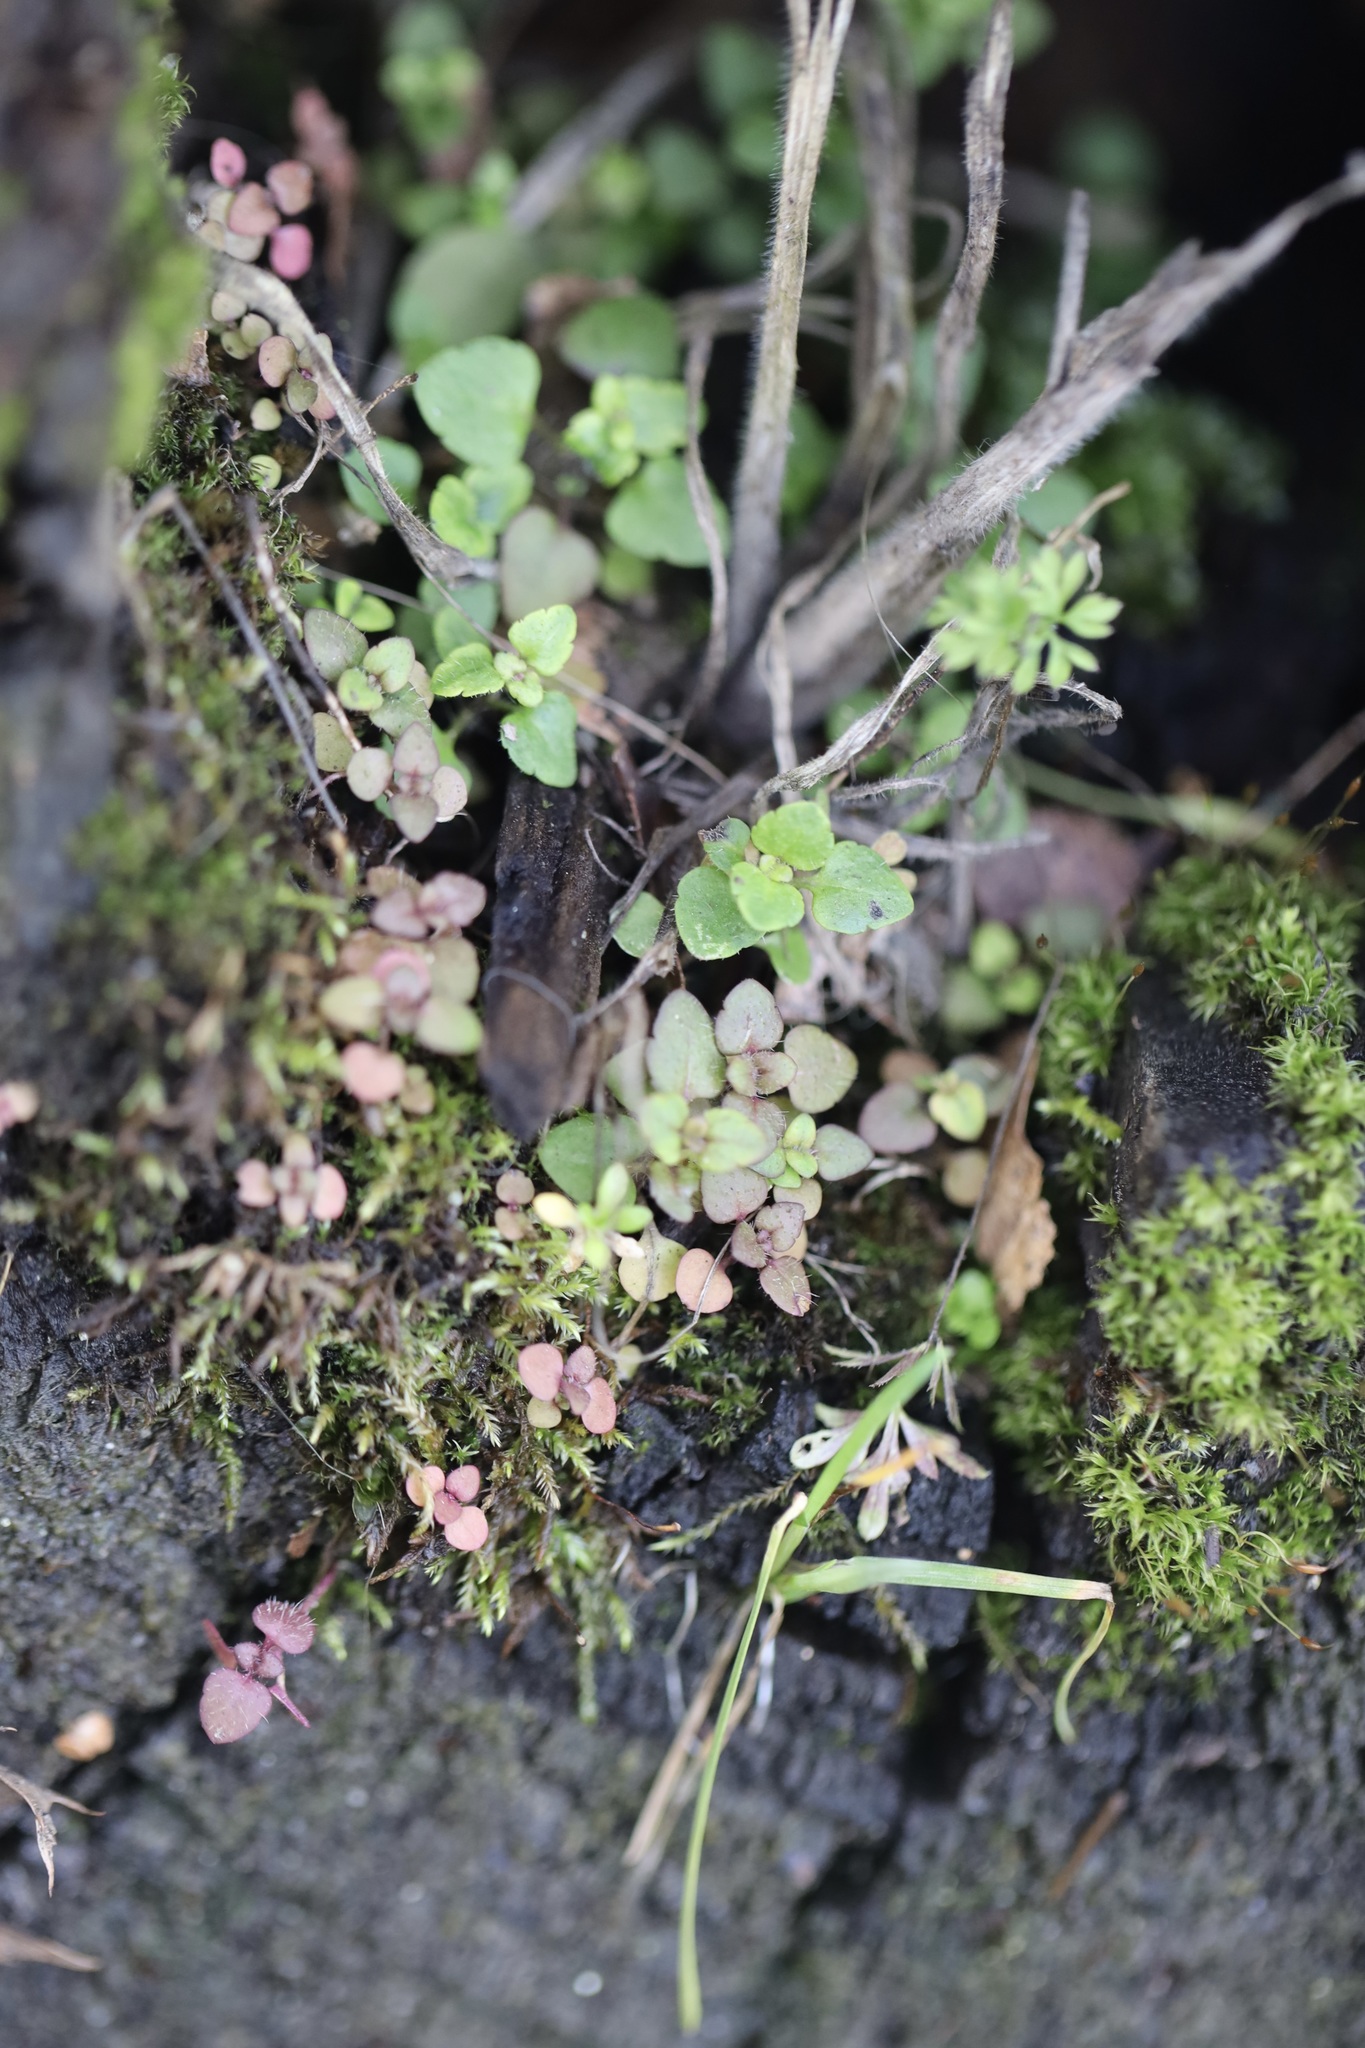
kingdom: Plantae
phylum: Tracheophyta
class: Magnoliopsida
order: Lamiales
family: Plantaginaceae
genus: Veronica
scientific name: Veronica arvensis
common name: Corn speedwell
